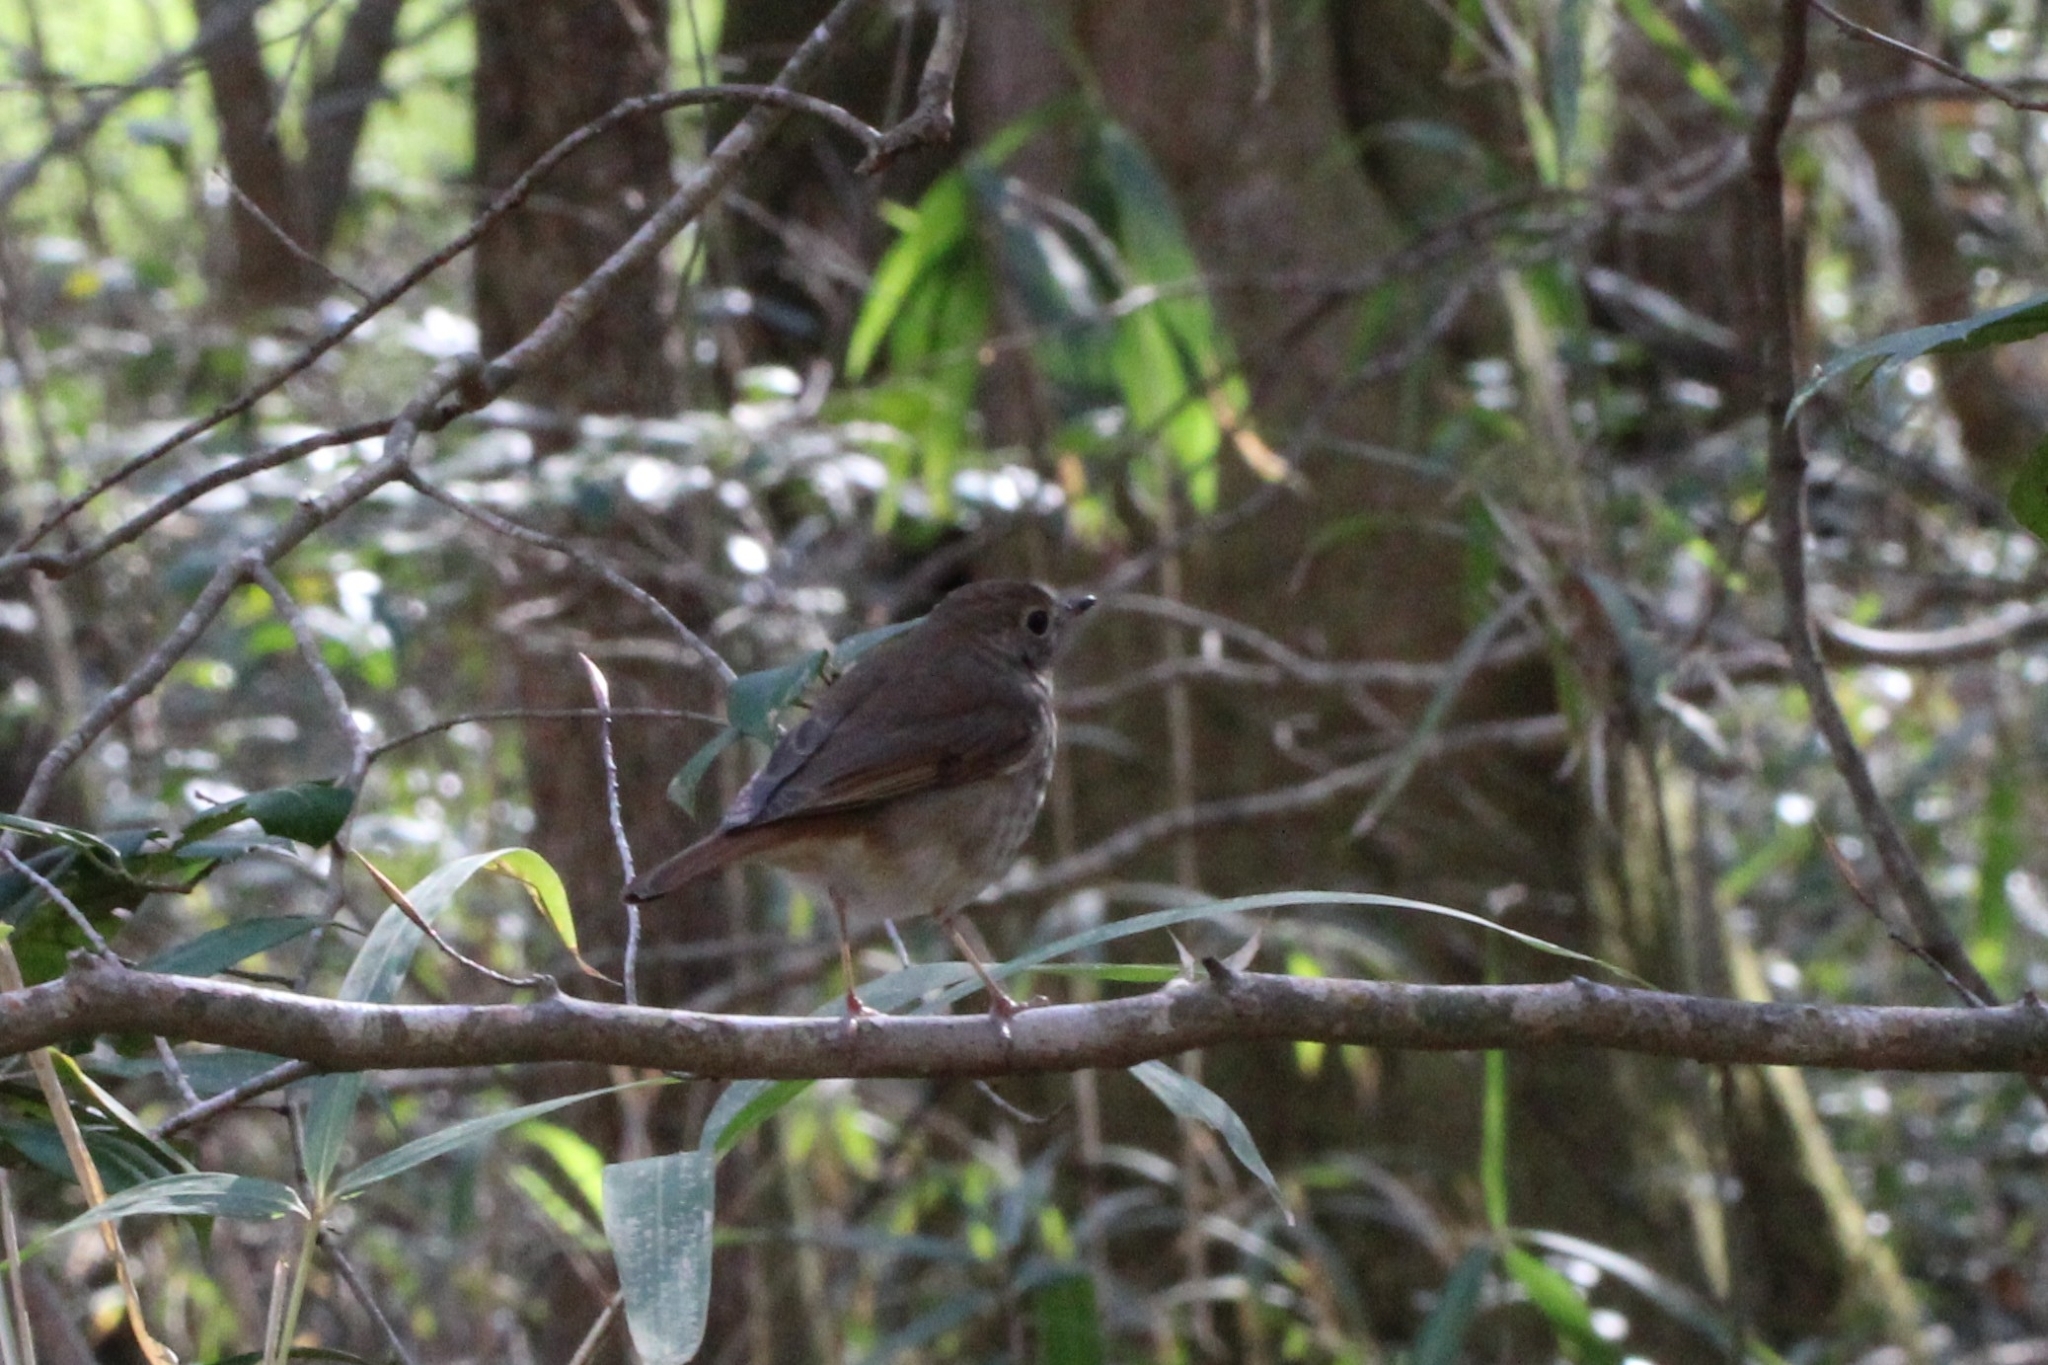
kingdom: Animalia
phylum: Chordata
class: Aves
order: Passeriformes
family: Turdidae
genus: Catharus
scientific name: Catharus guttatus
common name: Hermit thrush
